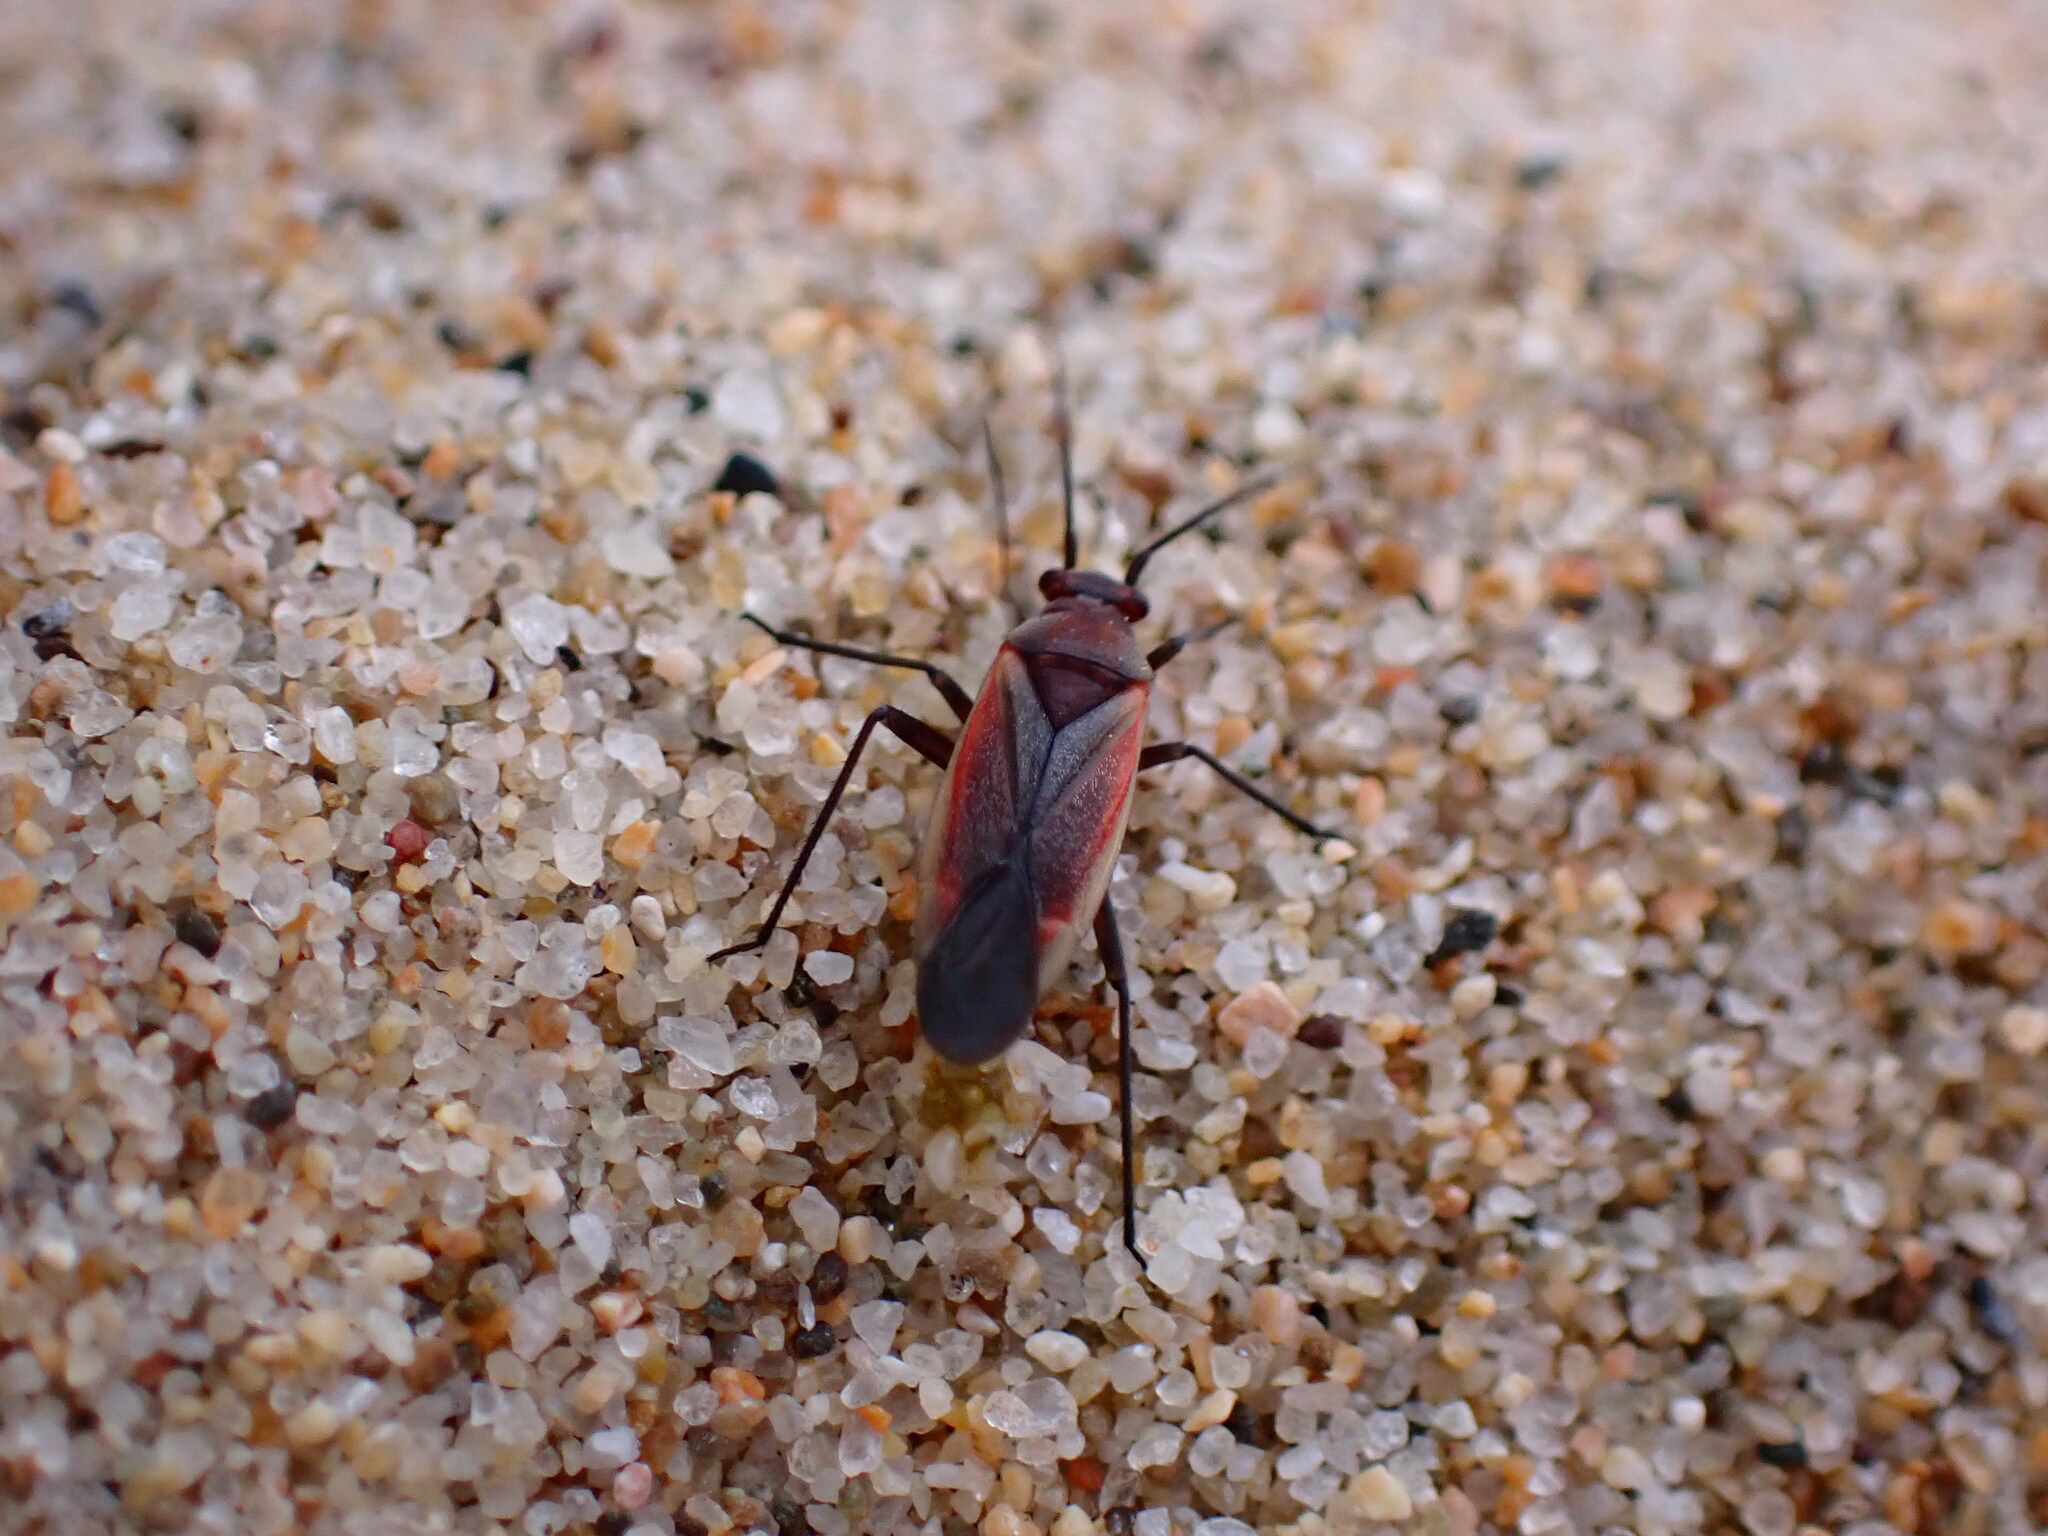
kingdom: Animalia
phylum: Arthropoda
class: Insecta
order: Hemiptera
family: Miridae
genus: Lopidea
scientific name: Lopidea marginata
